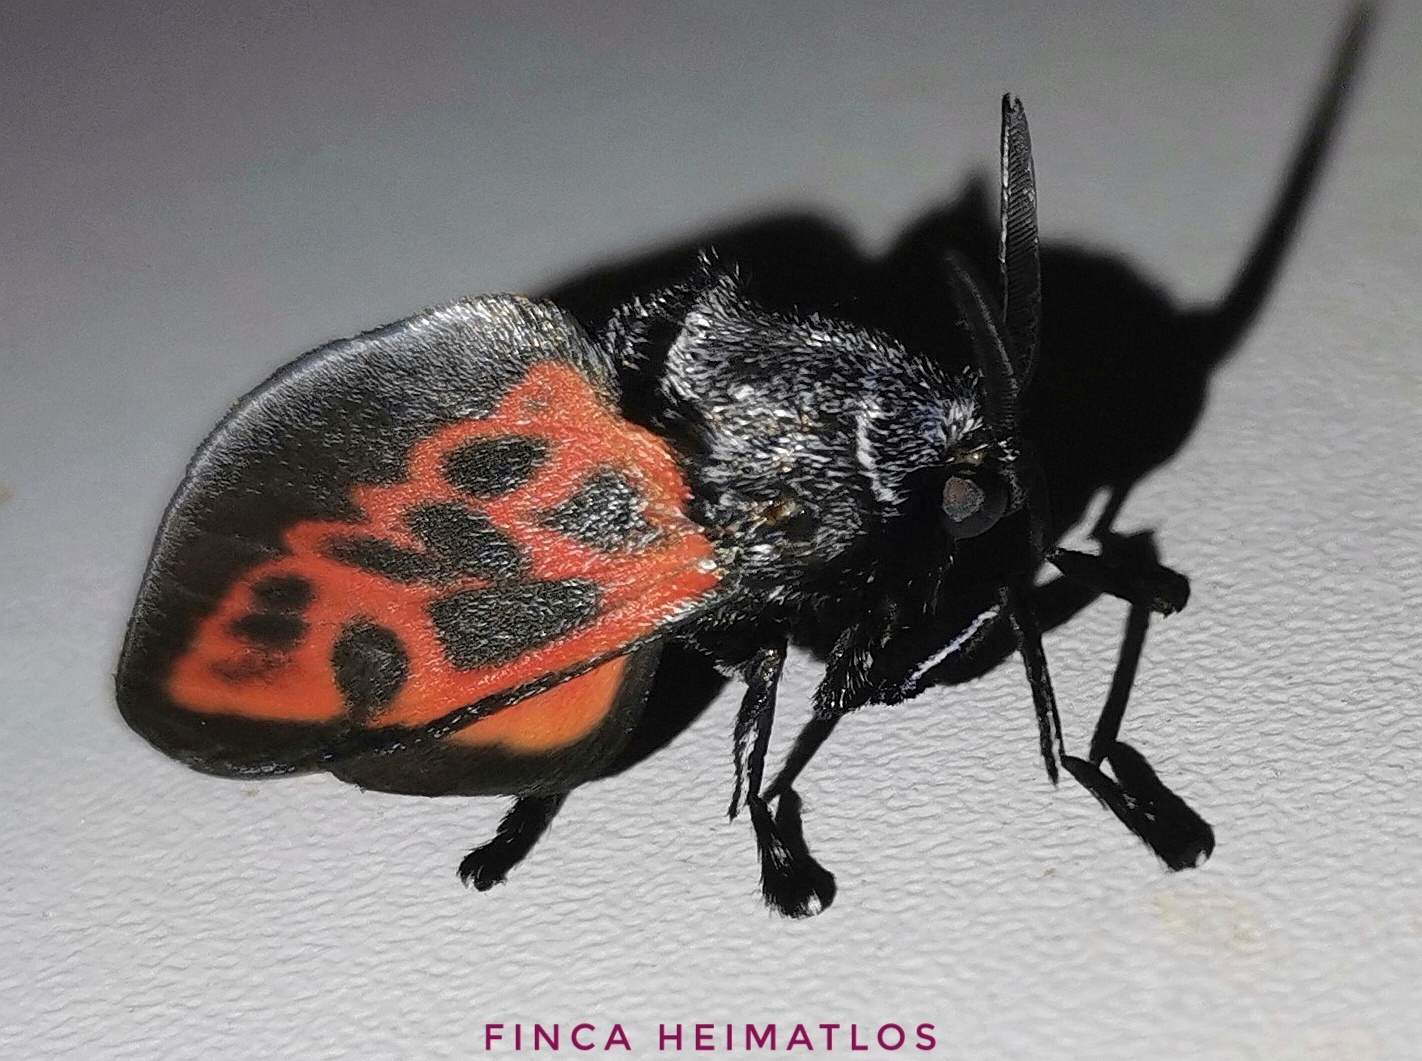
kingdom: Animalia
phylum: Arthropoda
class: Insecta
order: Lepidoptera
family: Megalopygidae
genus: Langucys
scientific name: Langucys nigrorufus
